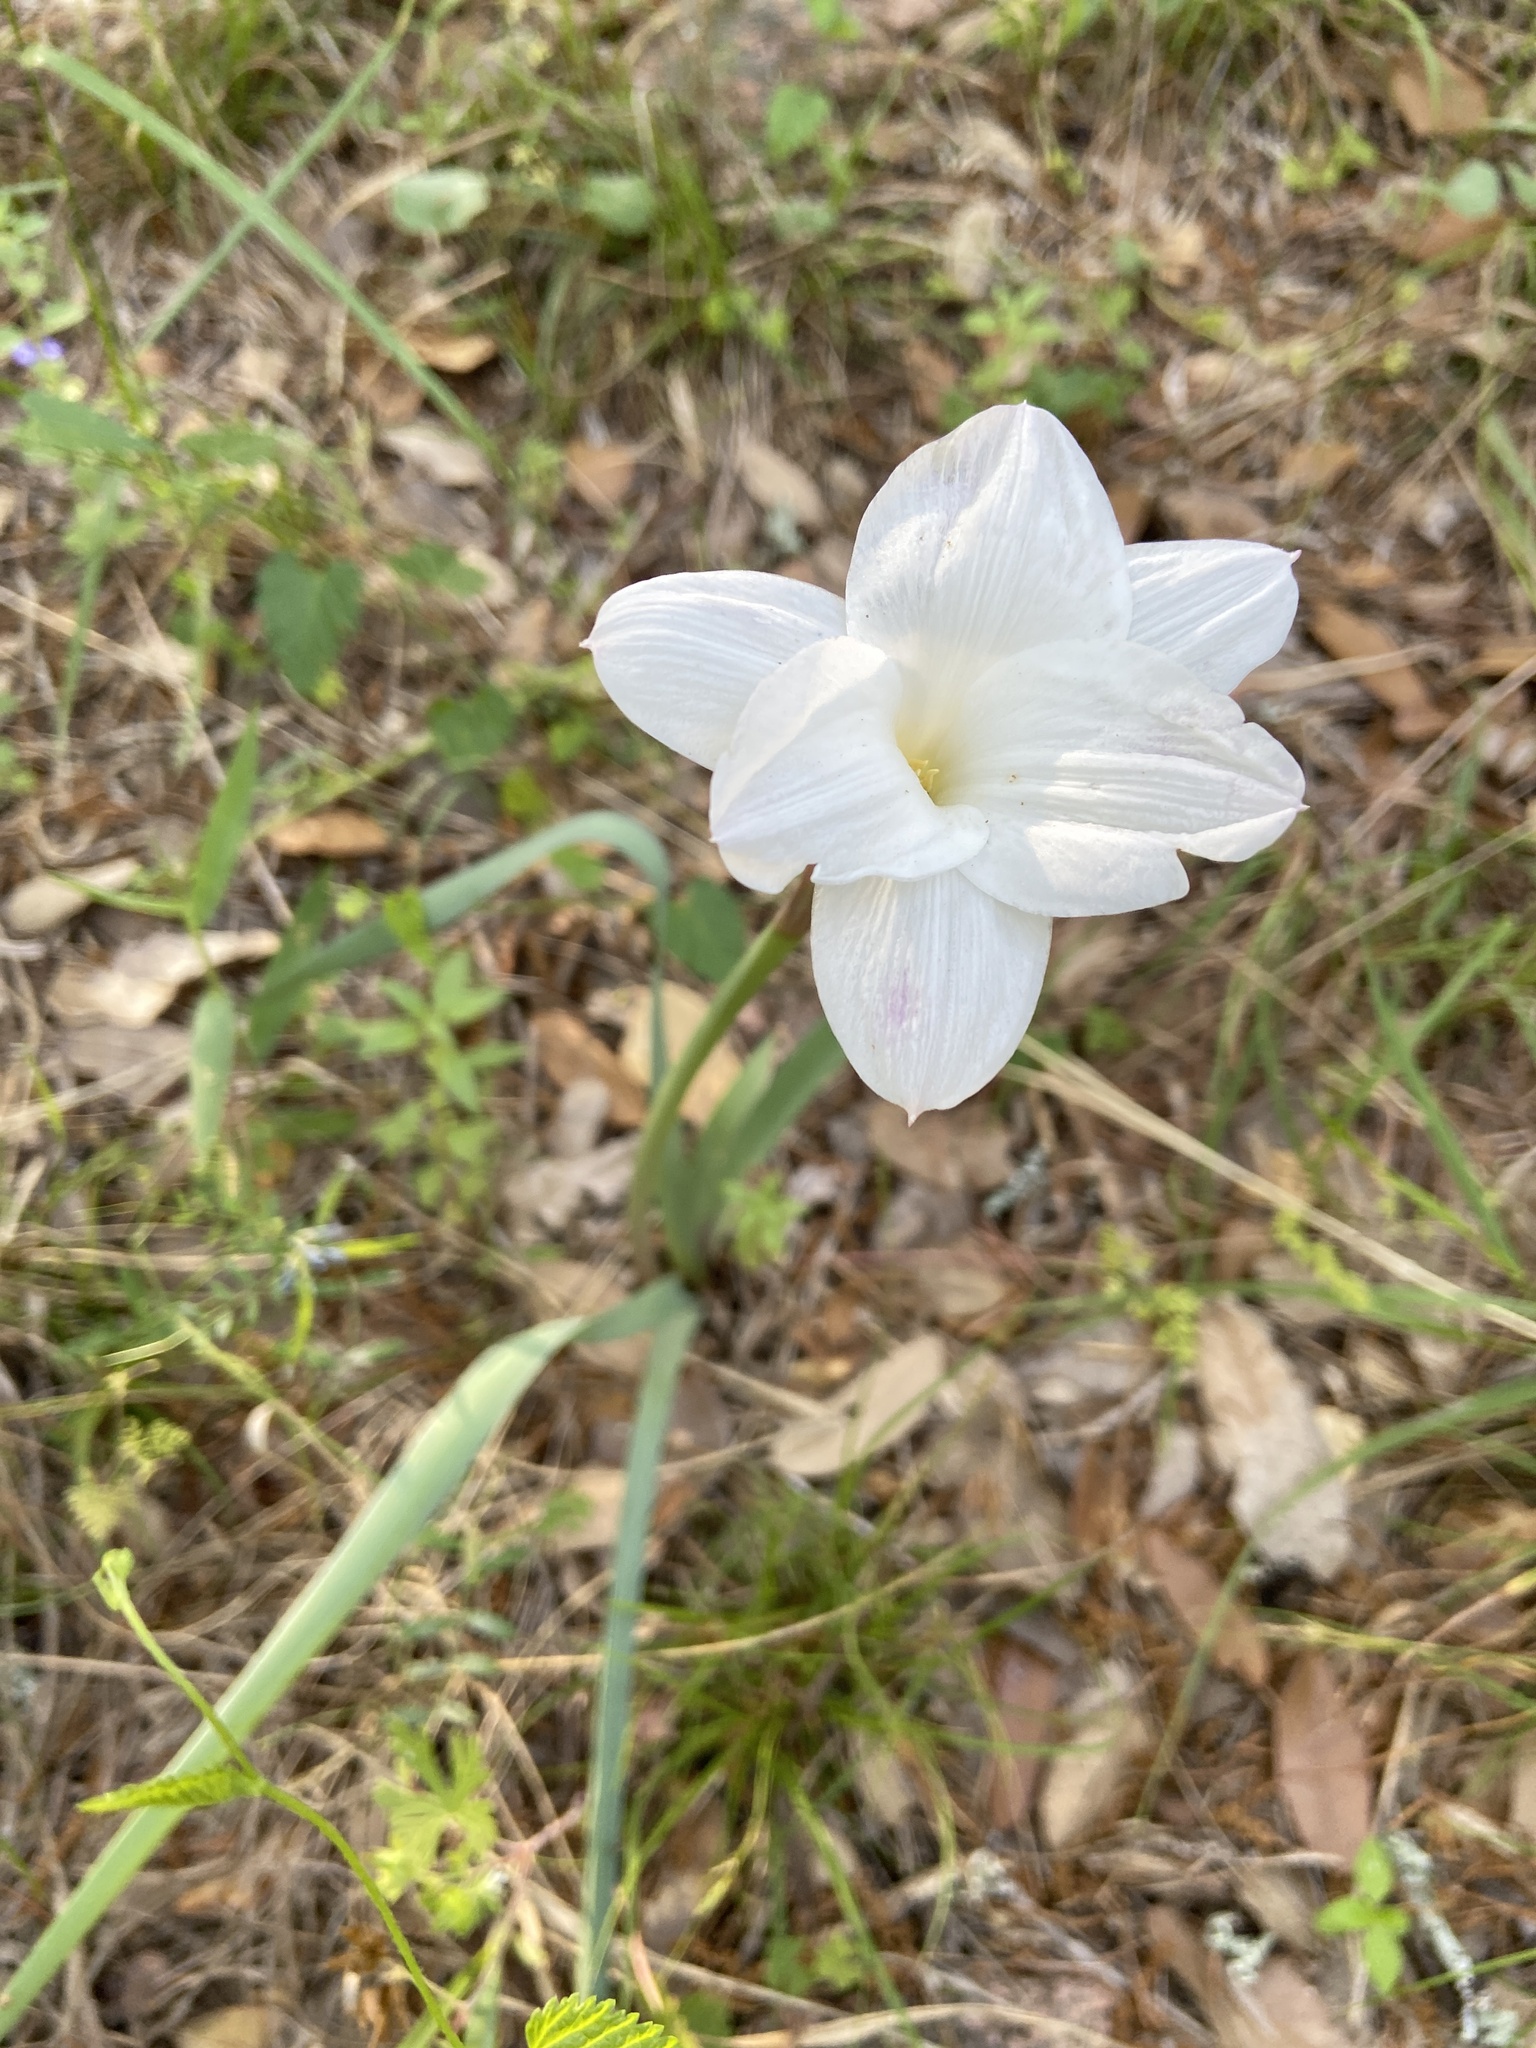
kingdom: Plantae
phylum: Tracheophyta
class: Liliopsida
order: Asparagales
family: Amaryllidaceae
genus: Zephyranthes
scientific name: Zephyranthes drummondii
